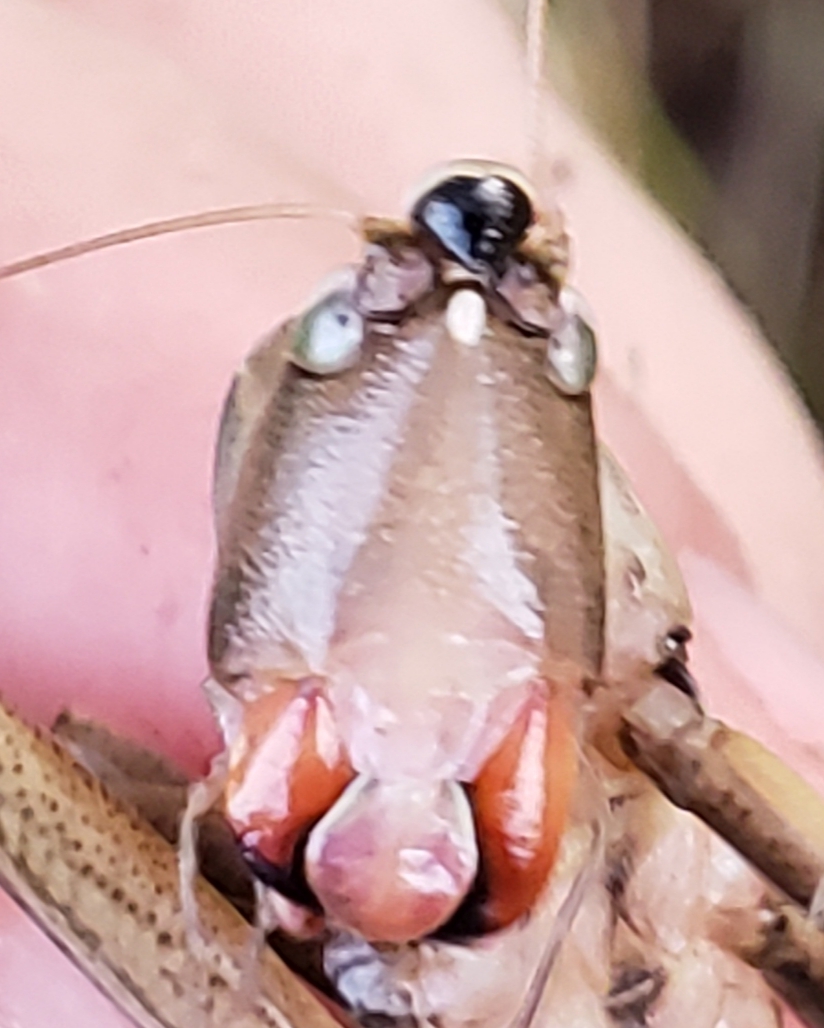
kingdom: Animalia
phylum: Arthropoda
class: Insecta
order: Orthoptera
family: Tettigoniidae
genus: Neoconocephalus
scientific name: Neoconocephalus triops
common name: Broad-tipped conehead
